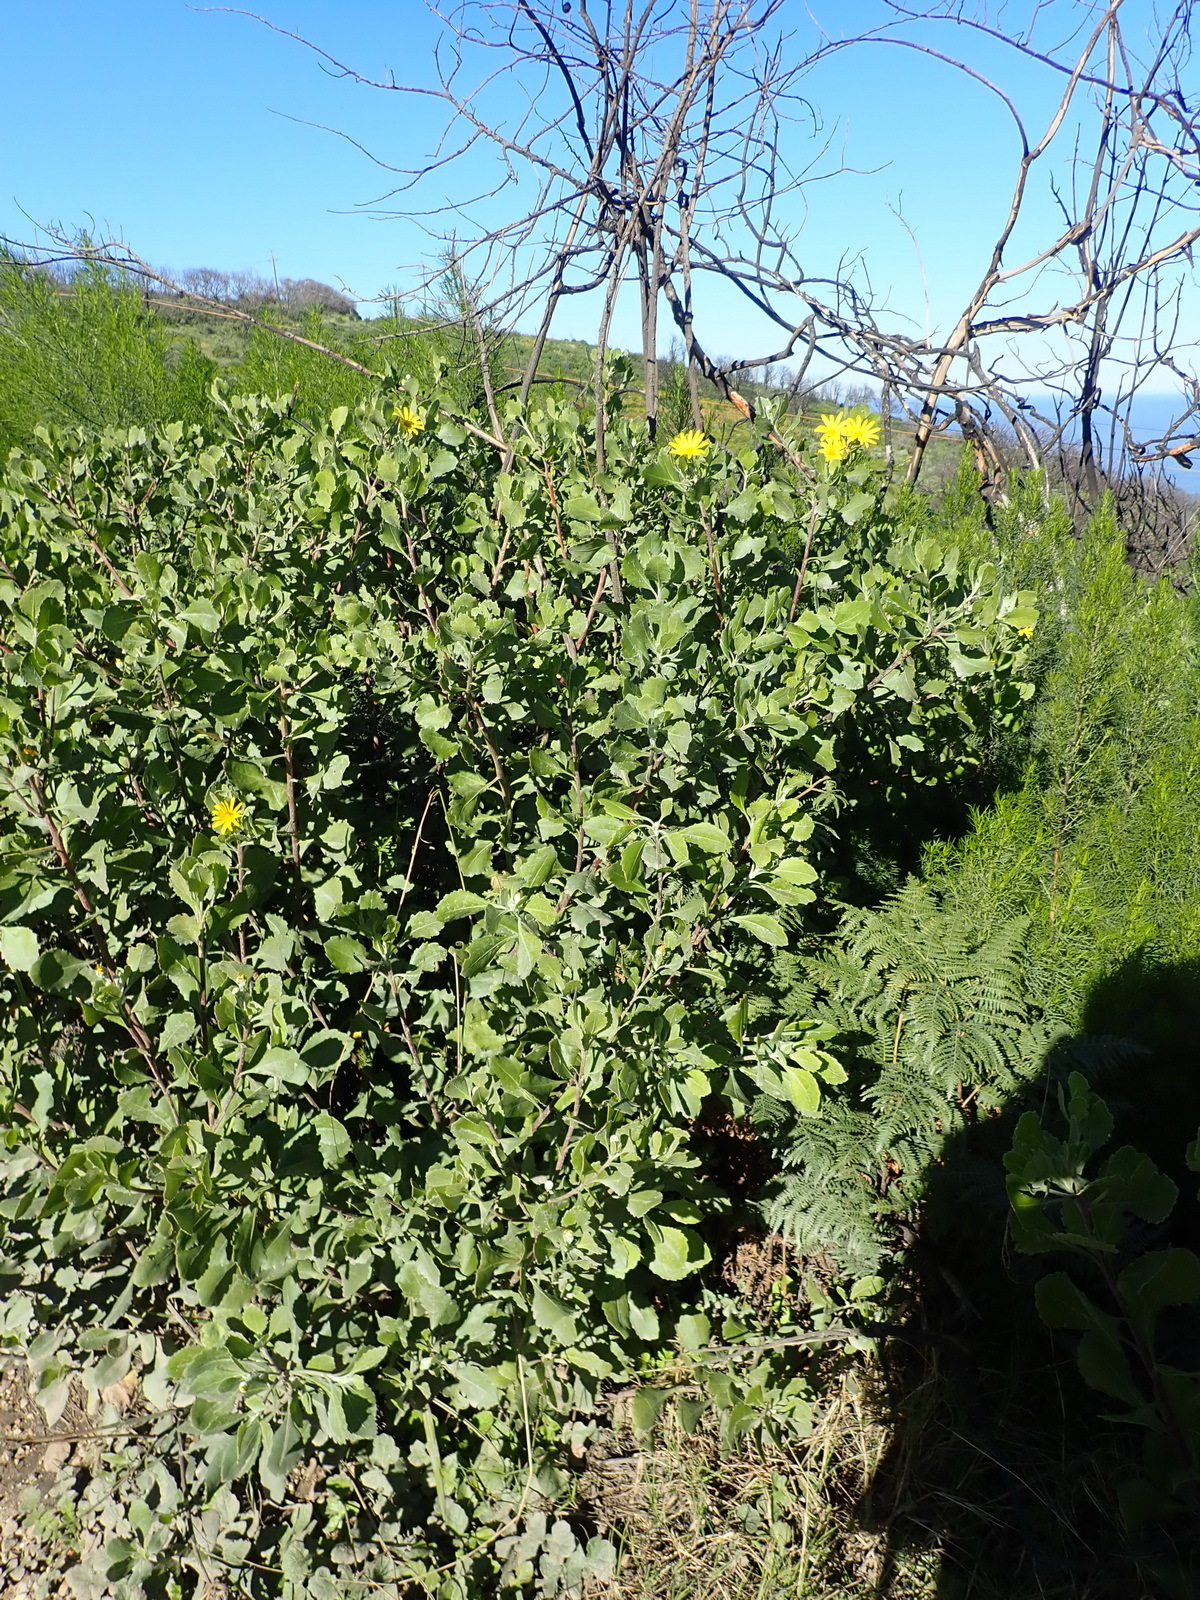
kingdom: Plantae
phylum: Tracheophyta
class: Magnoliopsida
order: Asterales
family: Asteraceae
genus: Osteospermum
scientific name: Osteospermum moniliferum
